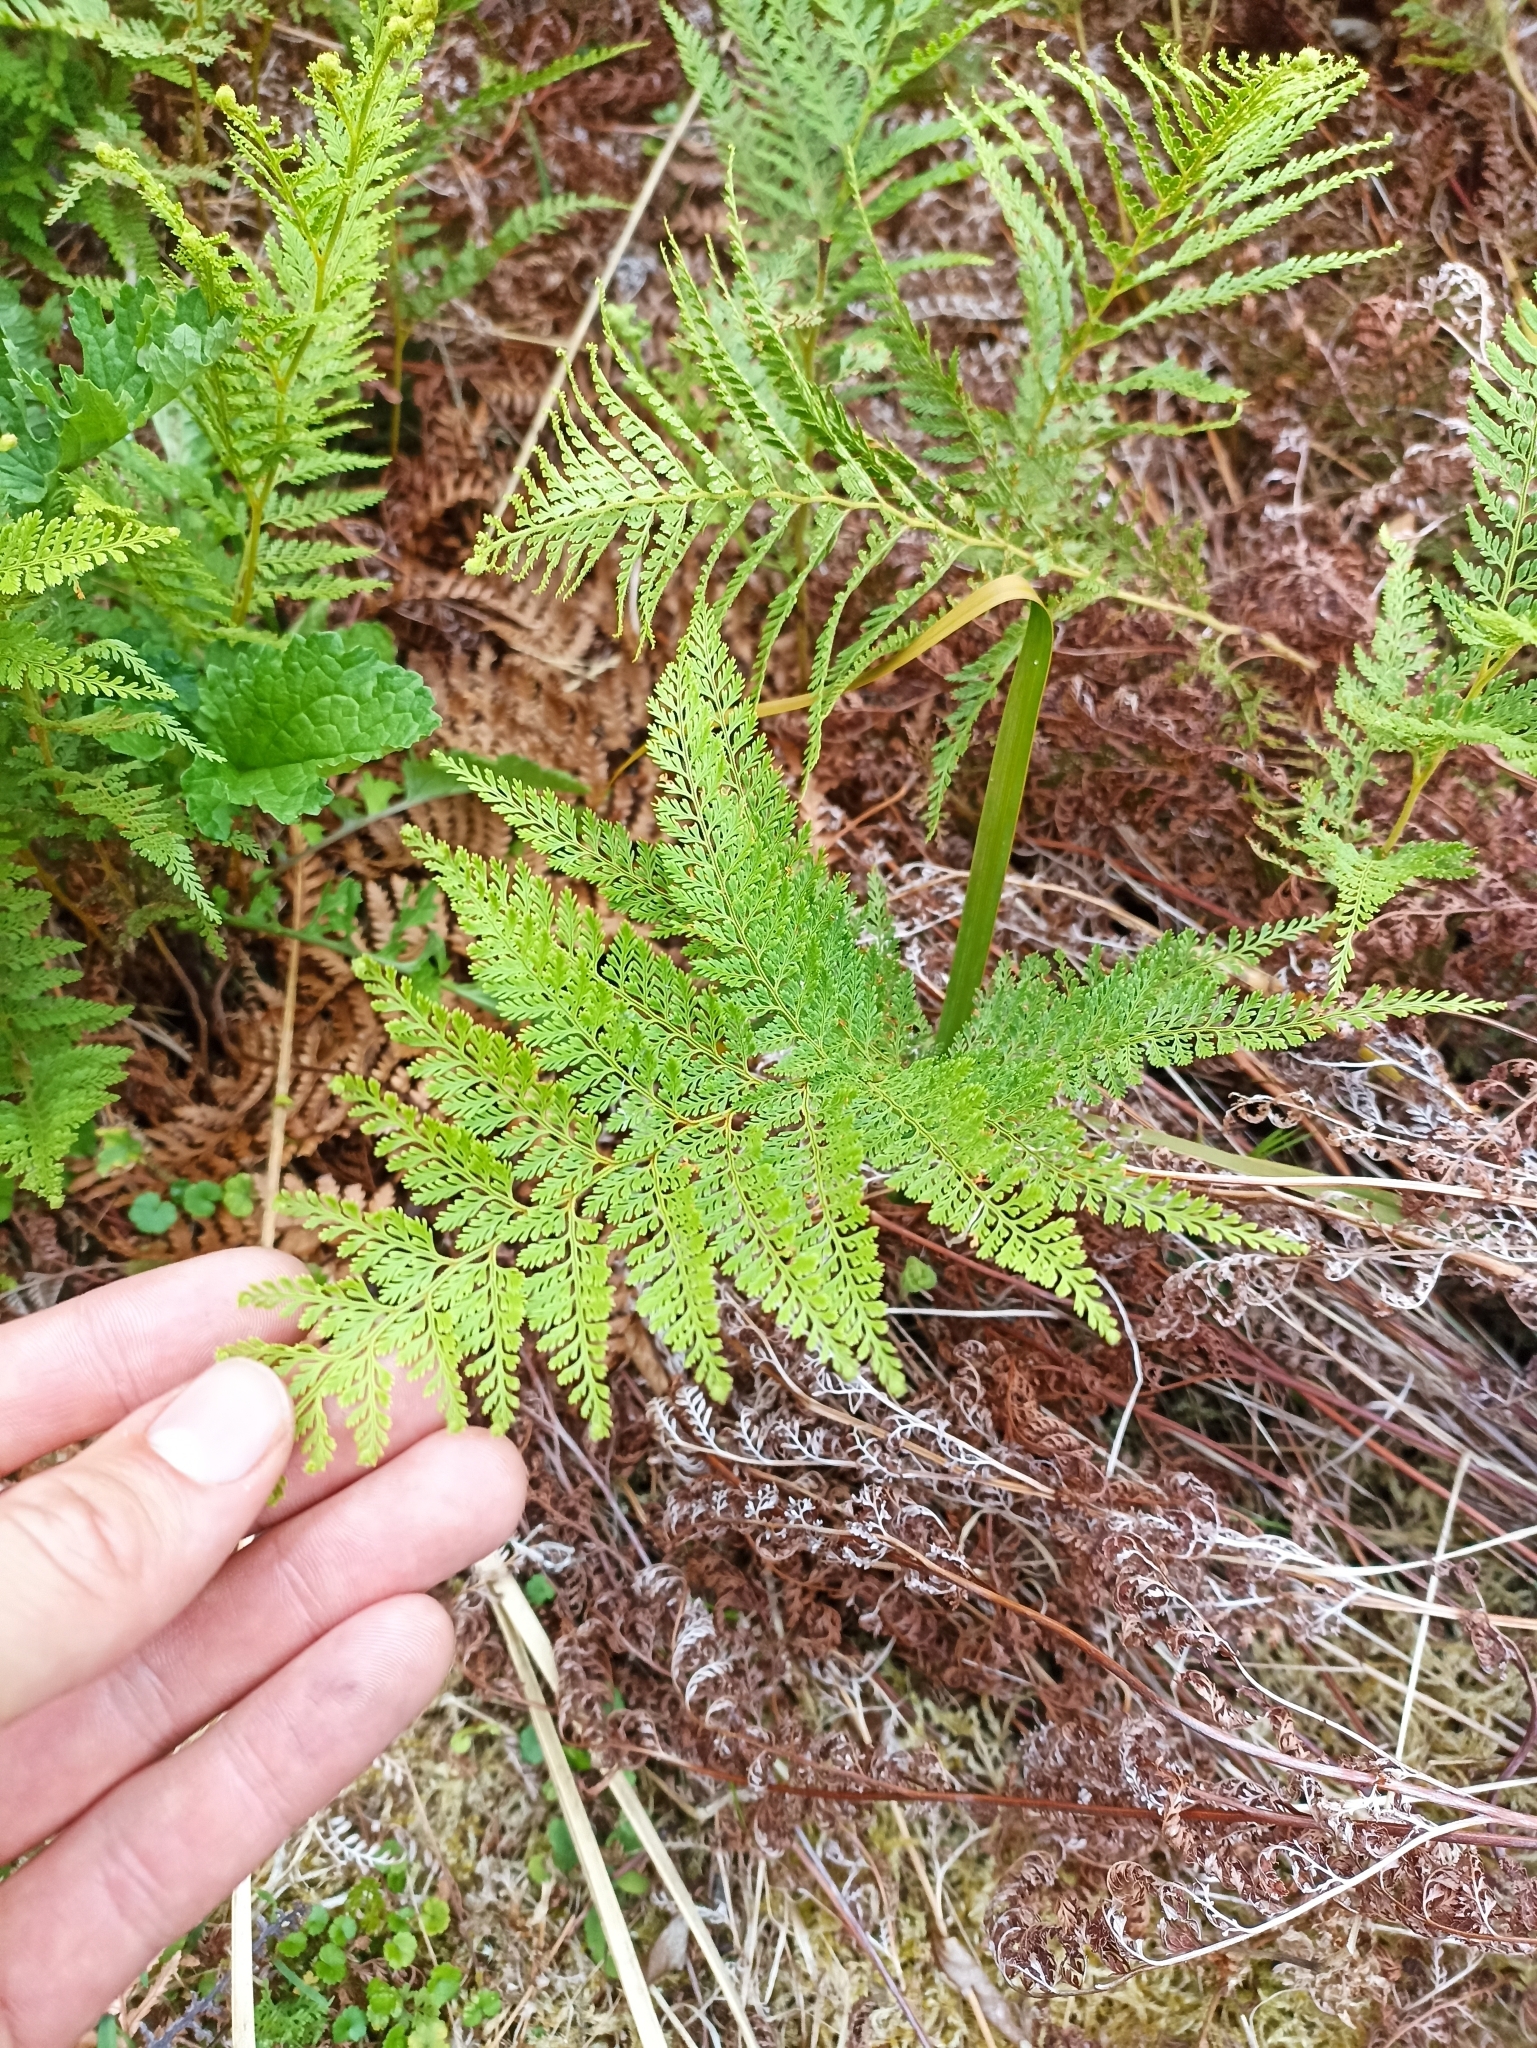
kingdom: Plantae
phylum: Tracheophyta
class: Polypodiopsida
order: Polypodiales
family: Dennstaedtiaceae
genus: Paesia
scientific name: Paesia scaberula
